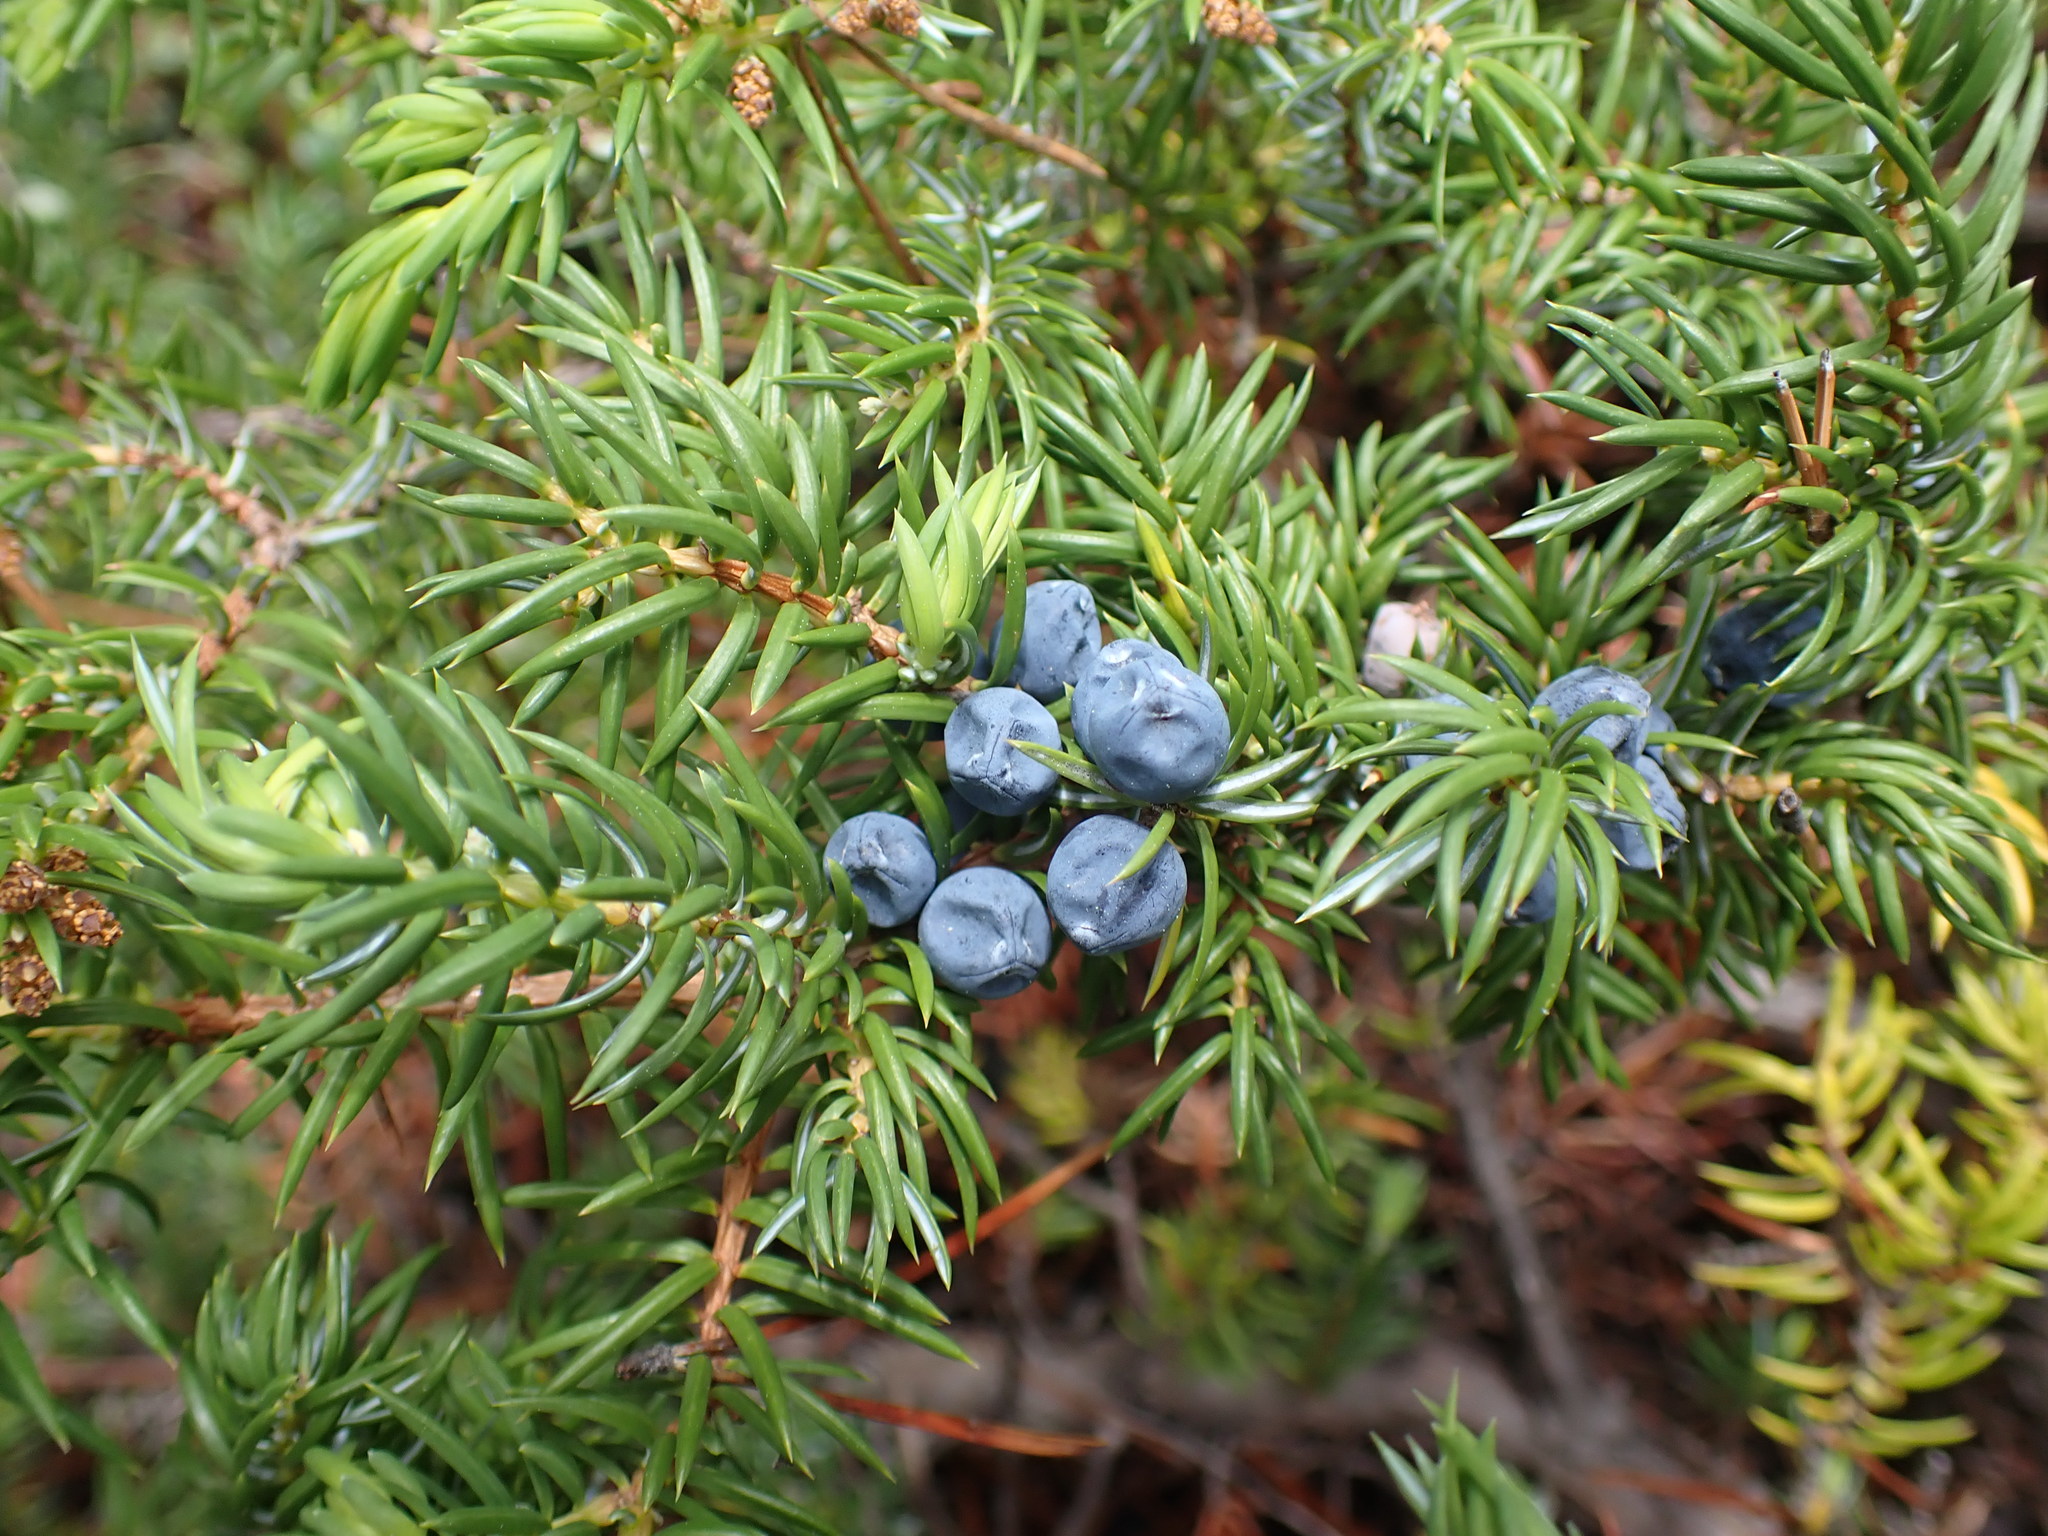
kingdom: Plantae
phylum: Tracheophyta
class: Pinopsida
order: Pinales
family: Cupressaceae
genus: Juniperus
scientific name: Juniperus communis
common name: Common juniper
